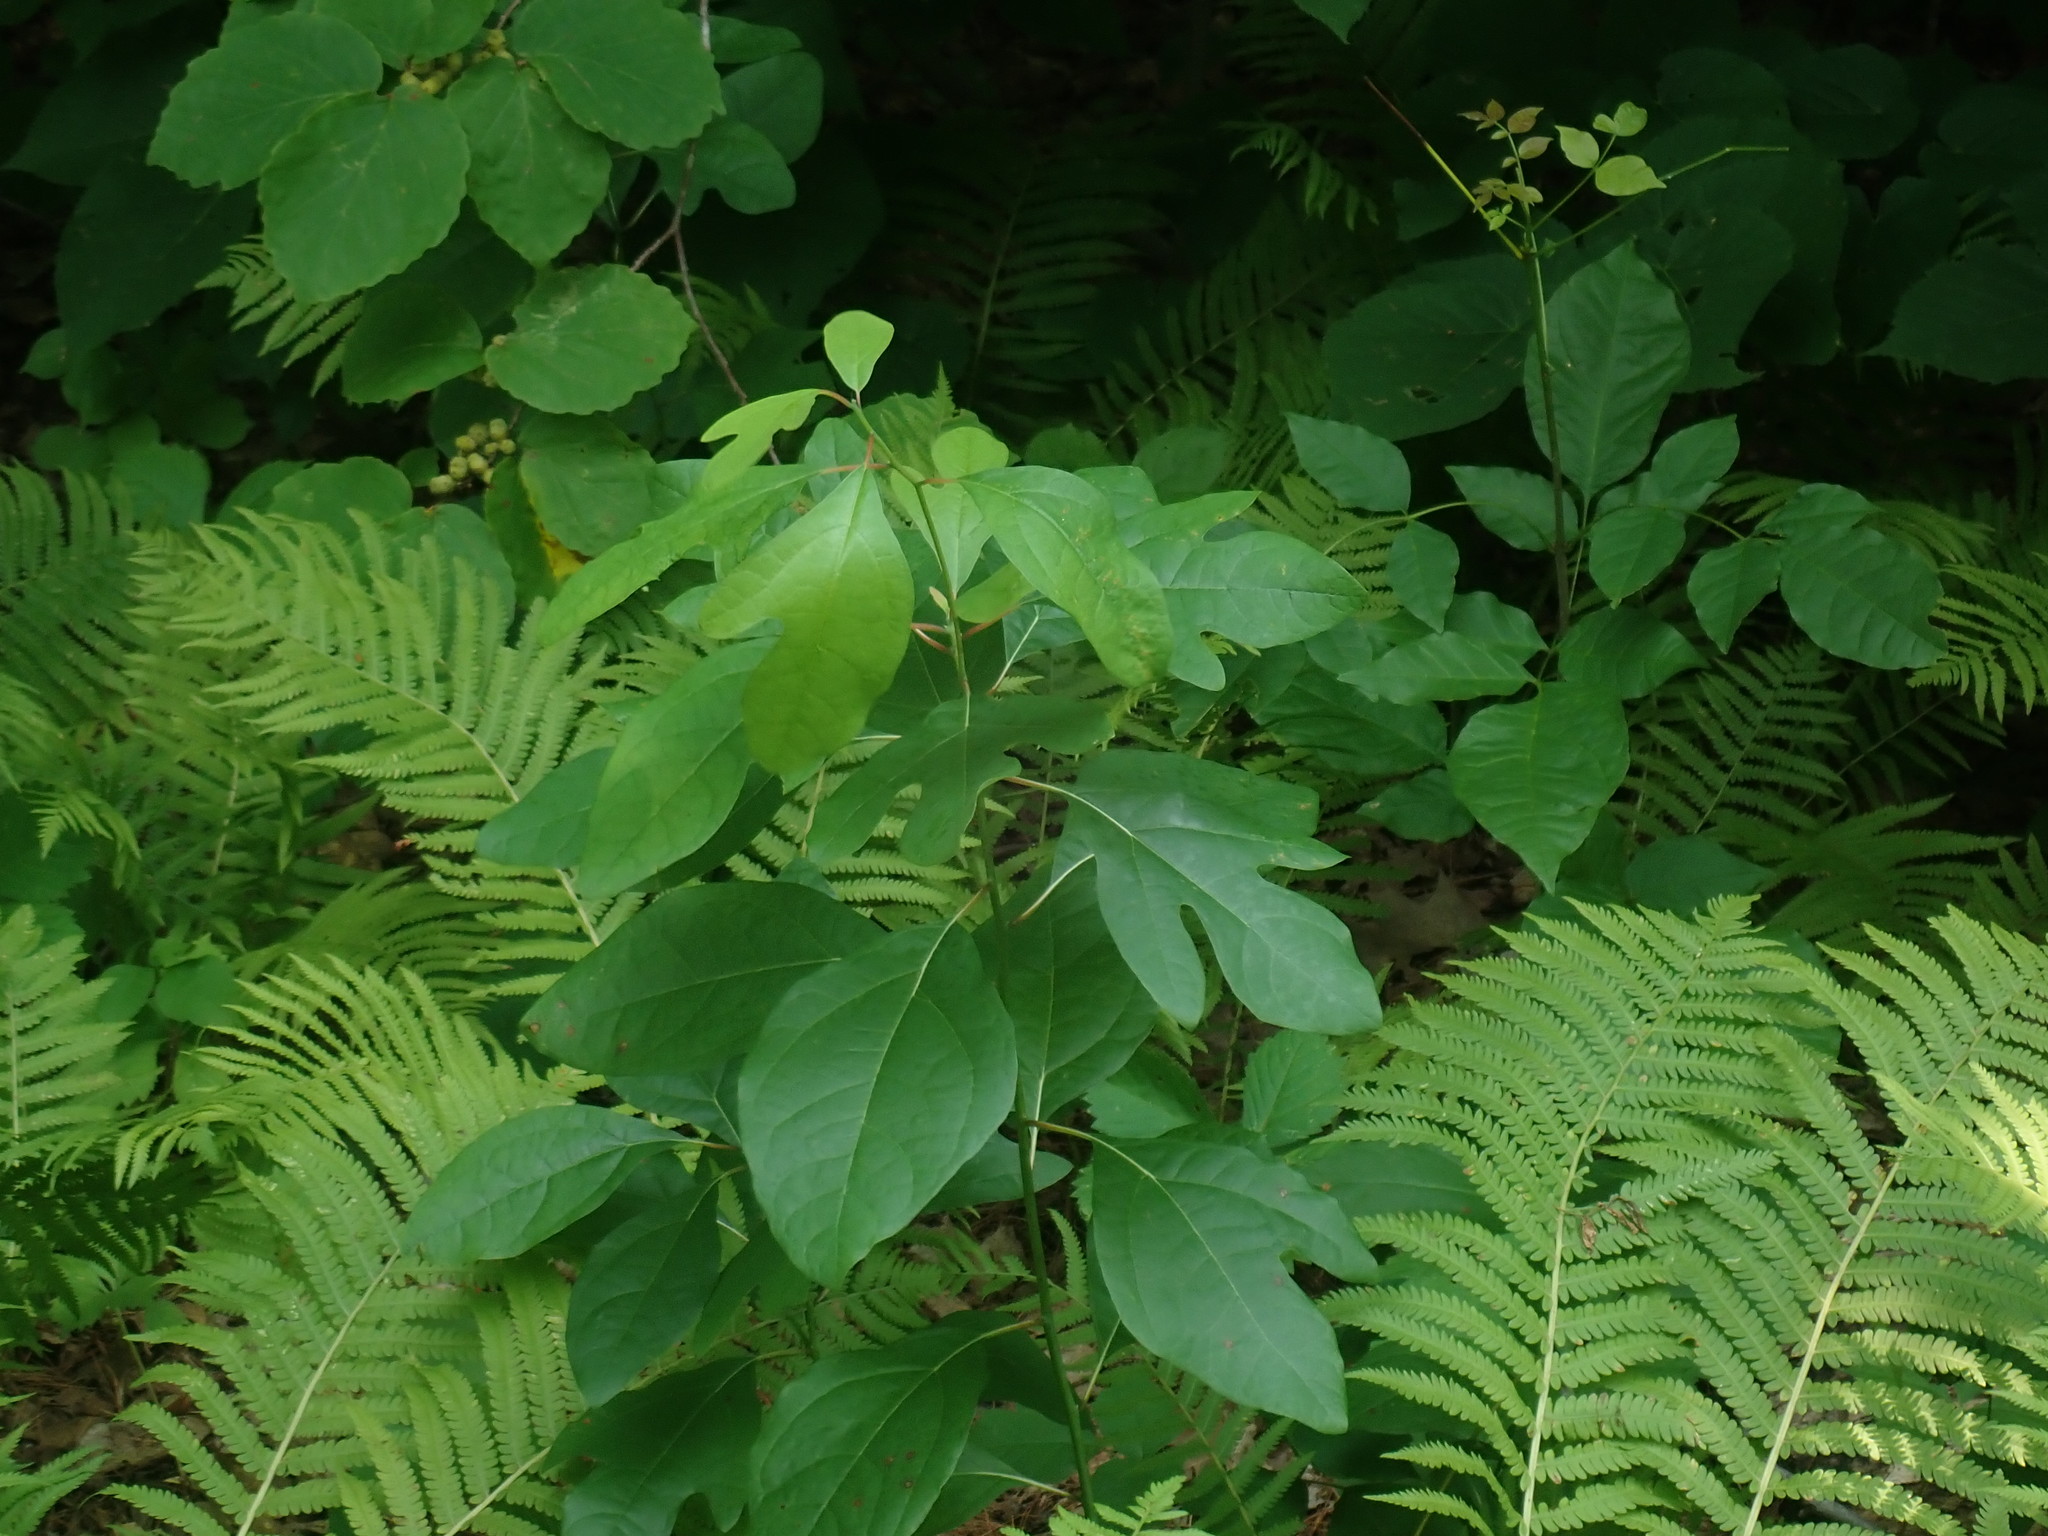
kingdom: Plantae
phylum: Tracheophyta
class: Magnoliopsida
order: Laurales
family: Lauraceae
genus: Sassafras
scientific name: Sassafras albidum
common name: Sassafras
